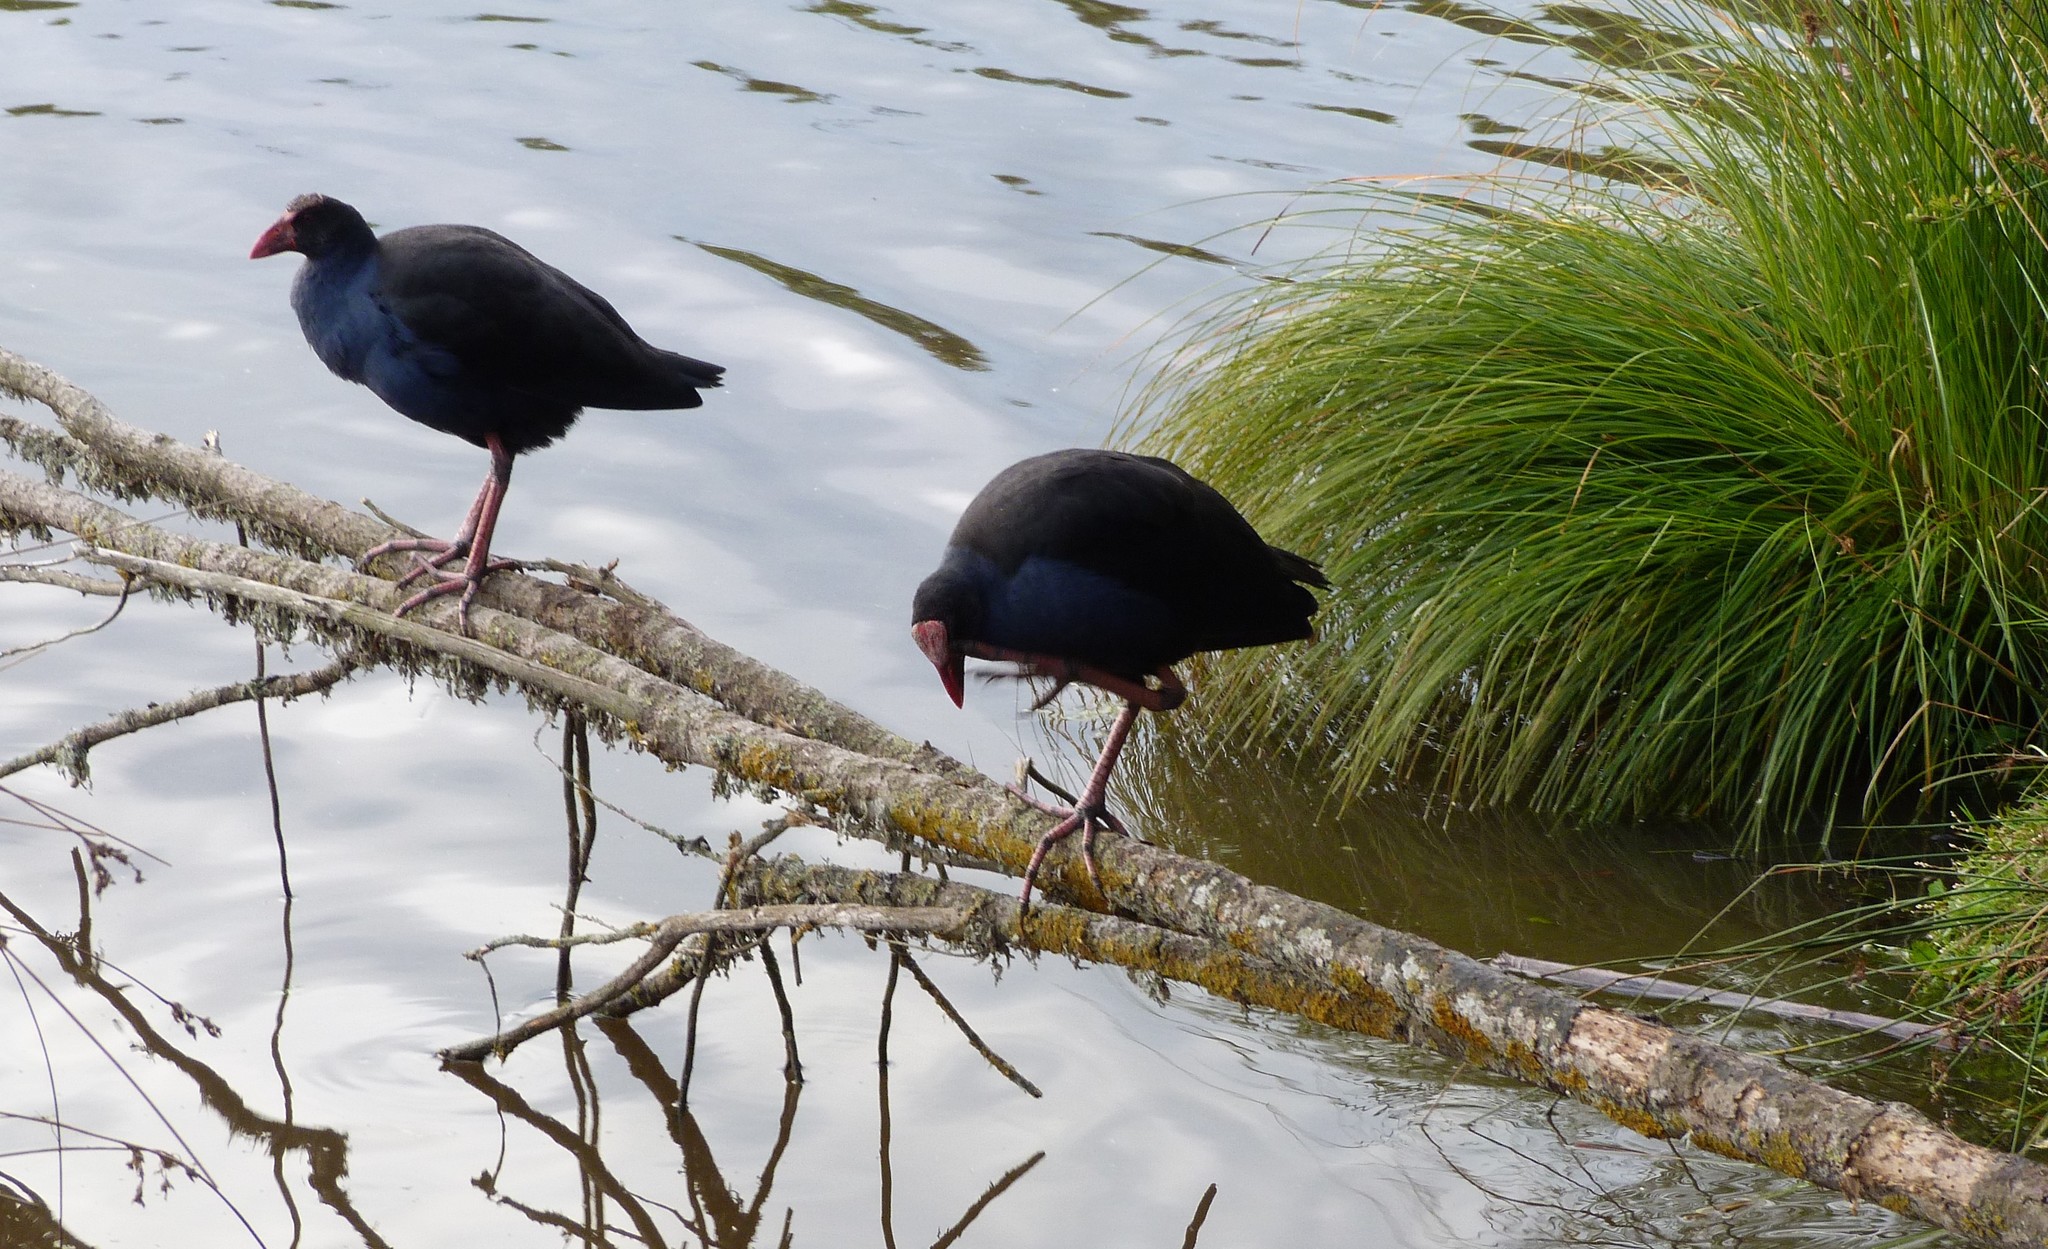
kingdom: Animalia
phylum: Chordata
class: Aves
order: Gruiformes
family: Rallidae
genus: Porphyrio
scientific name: Porphyrio melanotus
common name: Australasian swamphen
